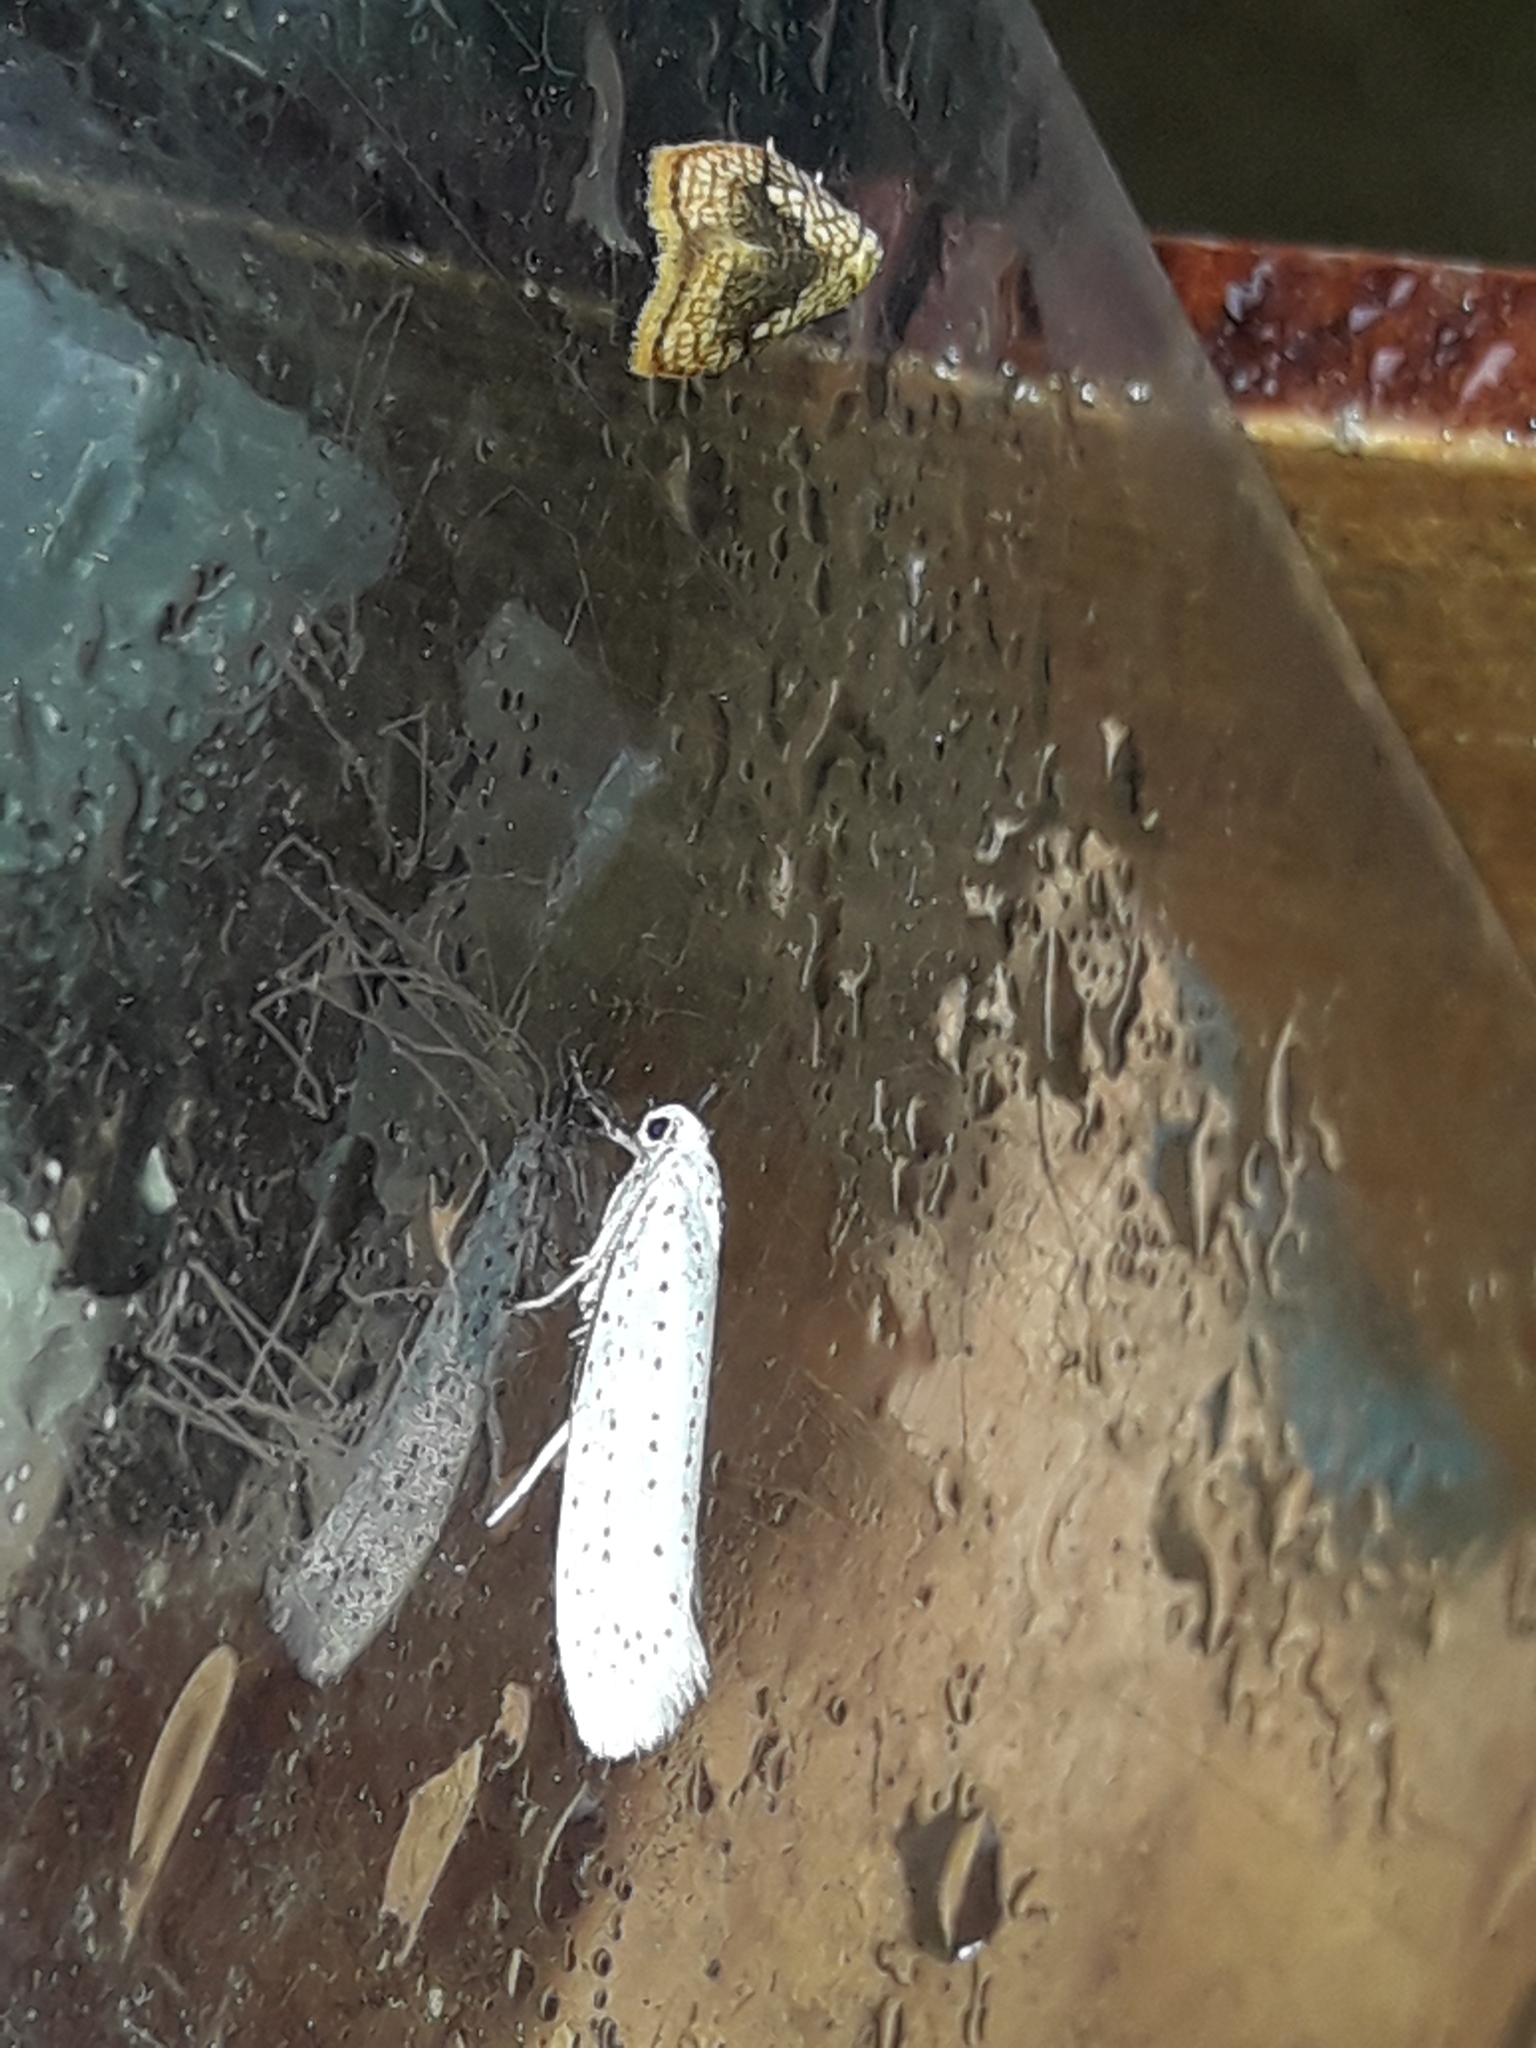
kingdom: Animalia
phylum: Arthropoda
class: Insecta
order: Lepidoptera
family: Yponomeutidae
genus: Yponomeuta
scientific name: Yponomeuta evonymella
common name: Bird-cherry ermine
